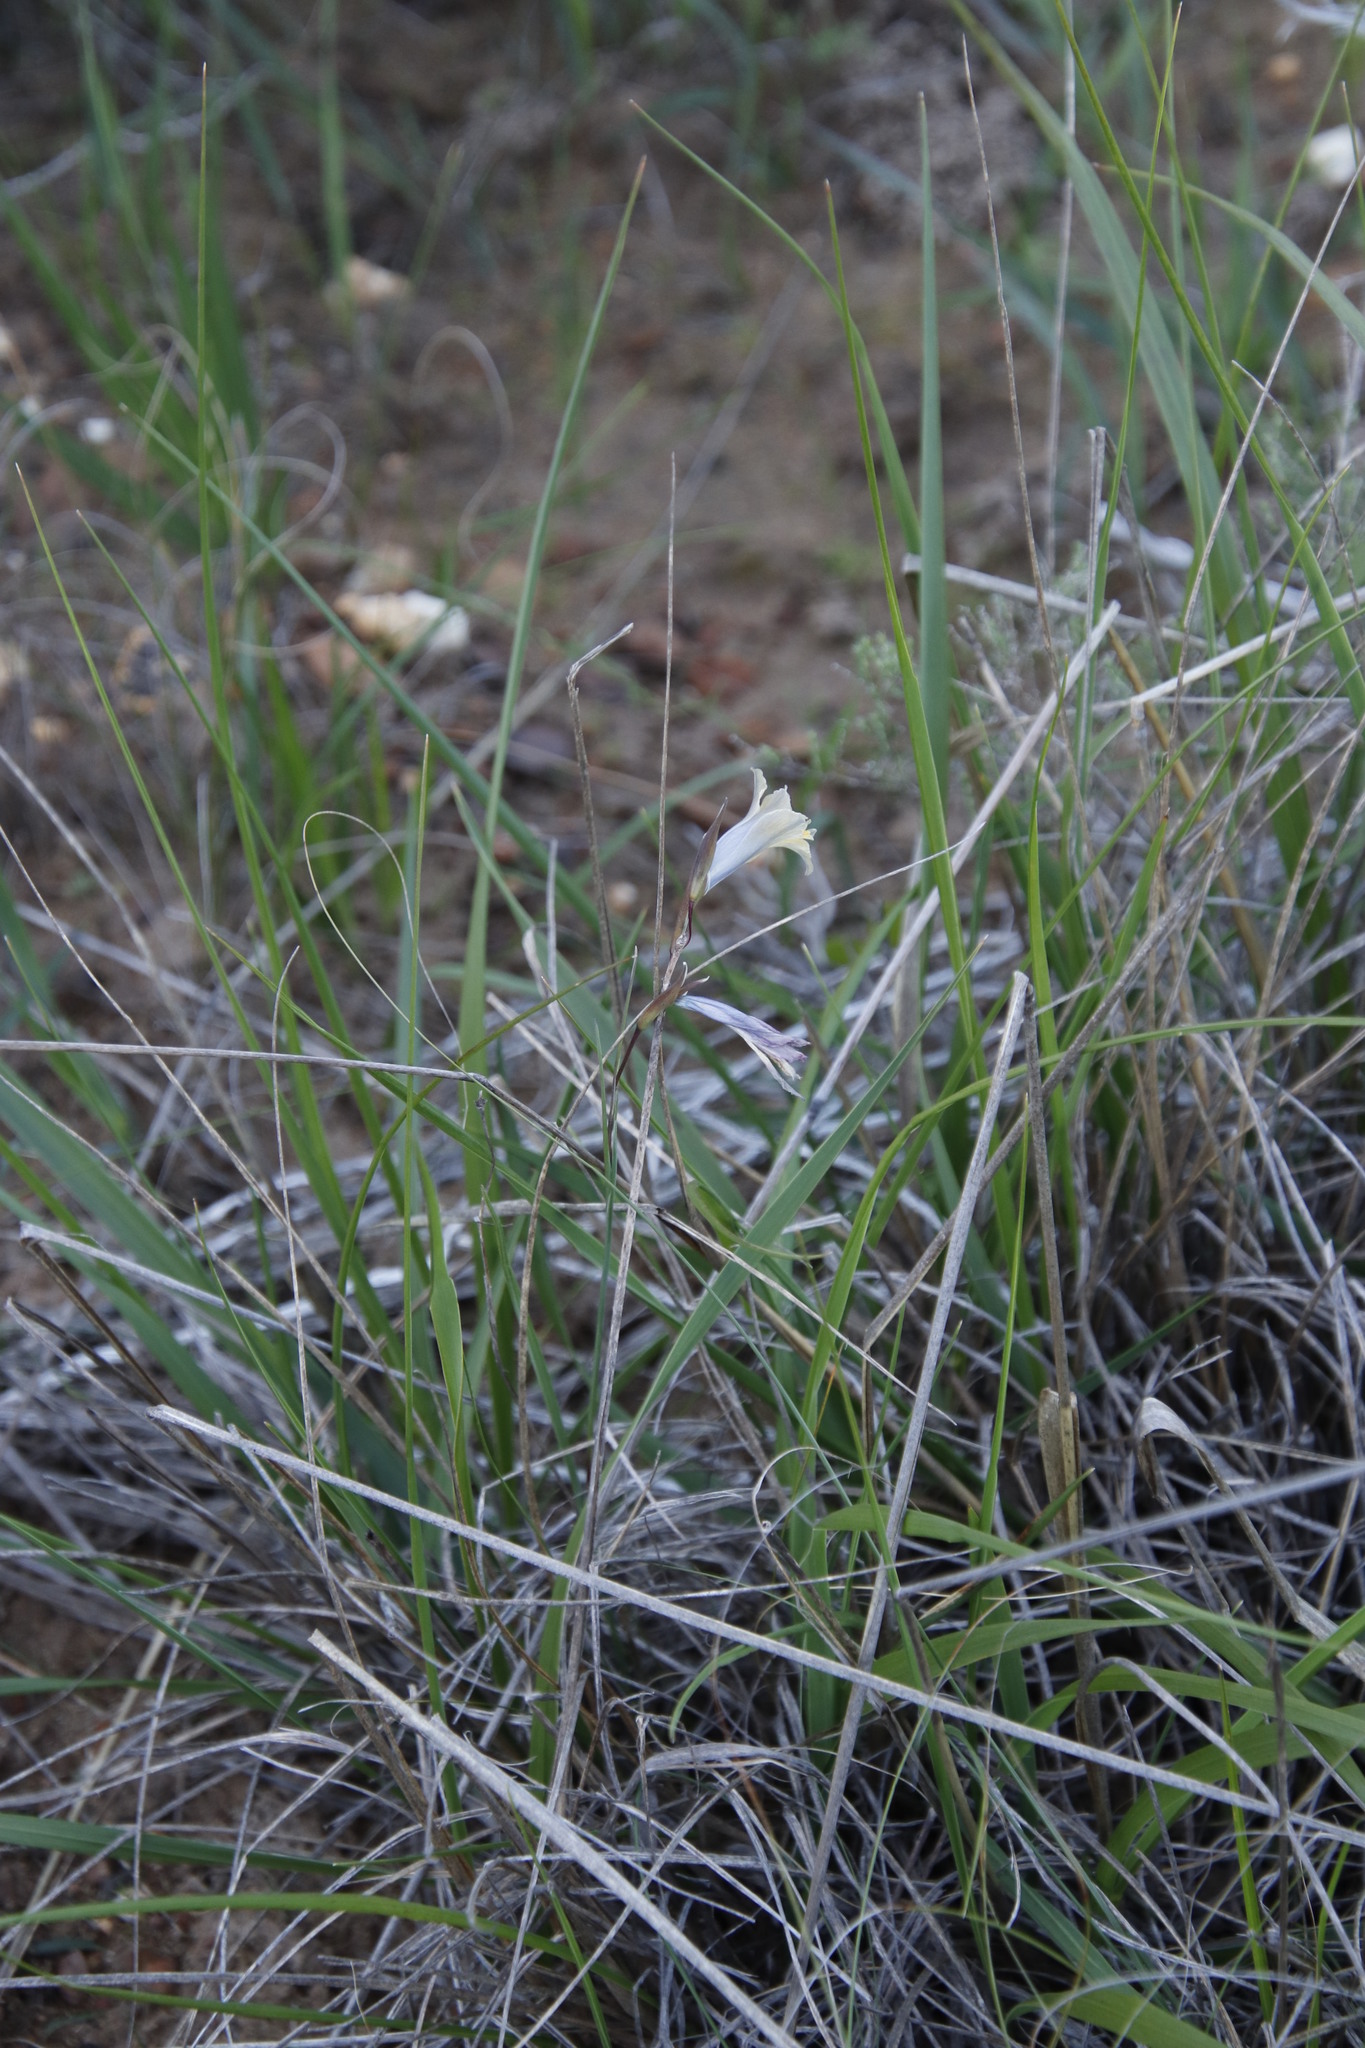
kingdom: Plantae
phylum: Tracheophyta
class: Liliopsida
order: Asparagales
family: Iridaceae
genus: Gladiolus
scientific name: Gladiolus gracilis
